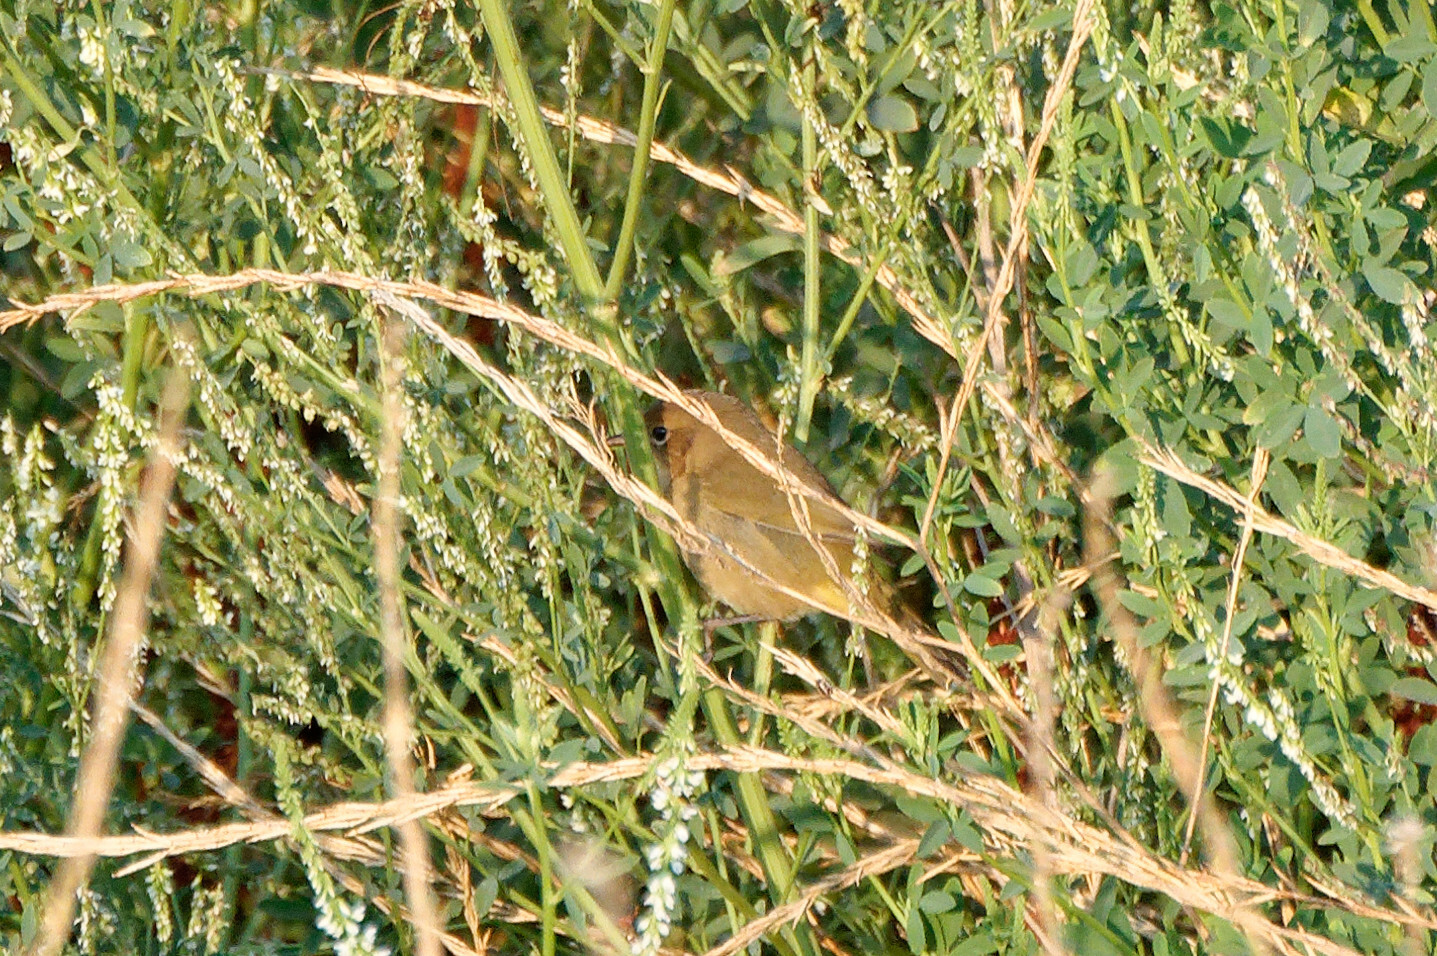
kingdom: Animalia
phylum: Chordata
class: Aves
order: Passeriformes
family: Parulidae
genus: Geothlypis
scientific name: Geothlypis trichas
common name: Common yellowthroat
